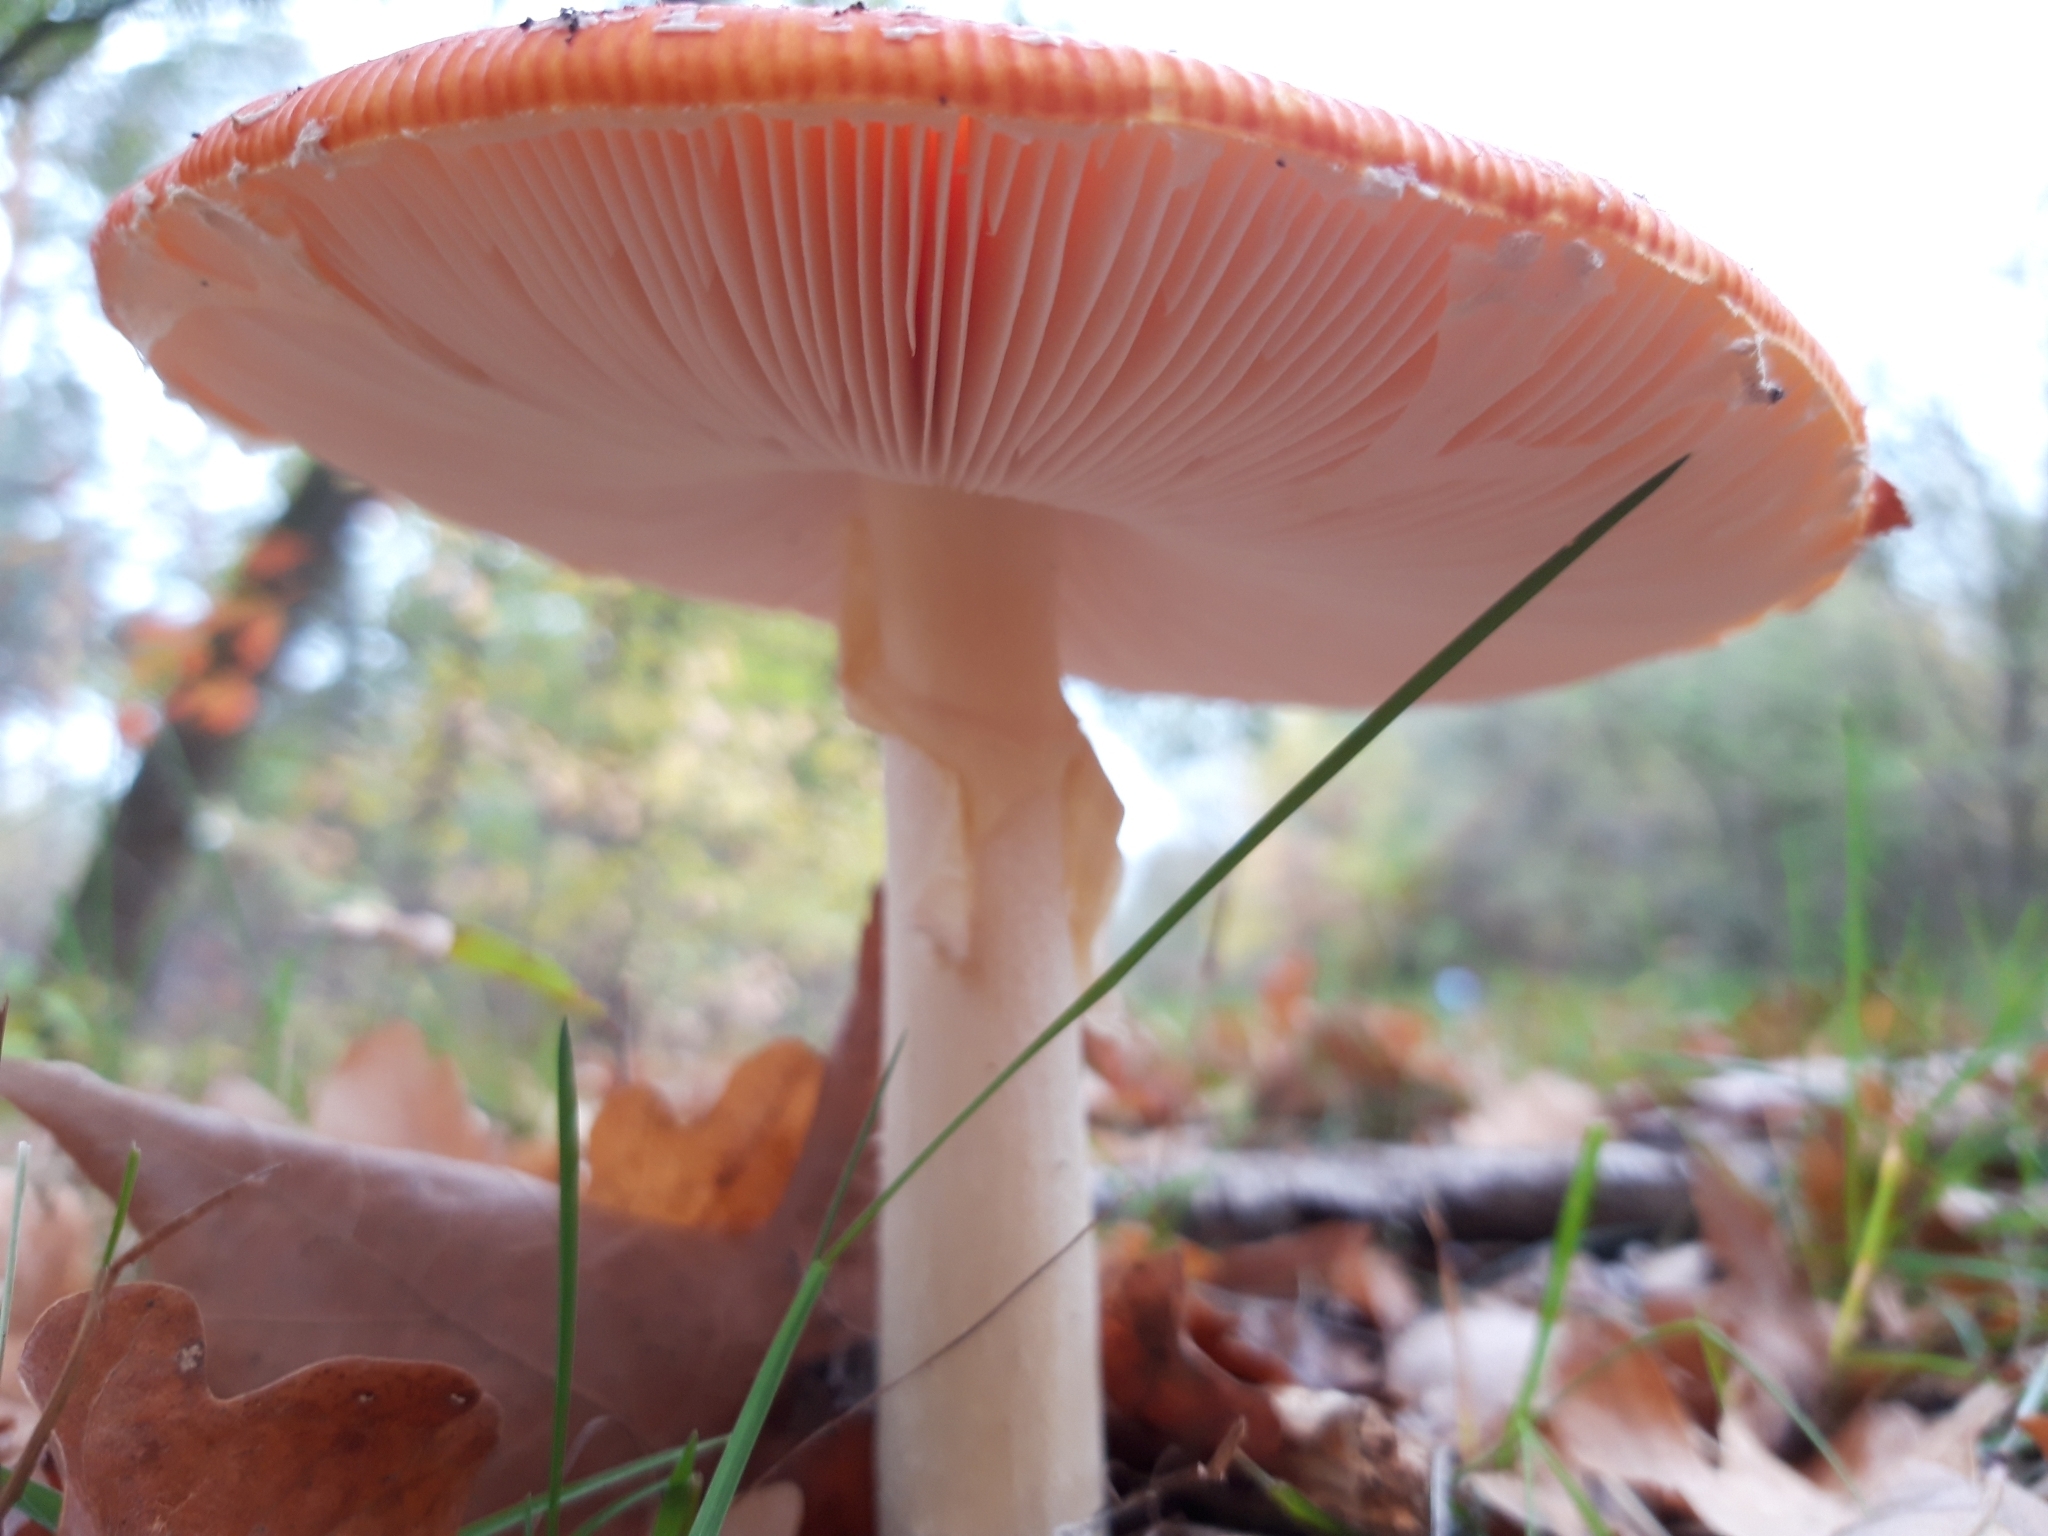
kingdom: Fungi
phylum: Basidiomycota
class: Agaricomycetes
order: Agaricales
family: Amanitaceae
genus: Amanita
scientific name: Amanita muscaria
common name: Fly agaric
